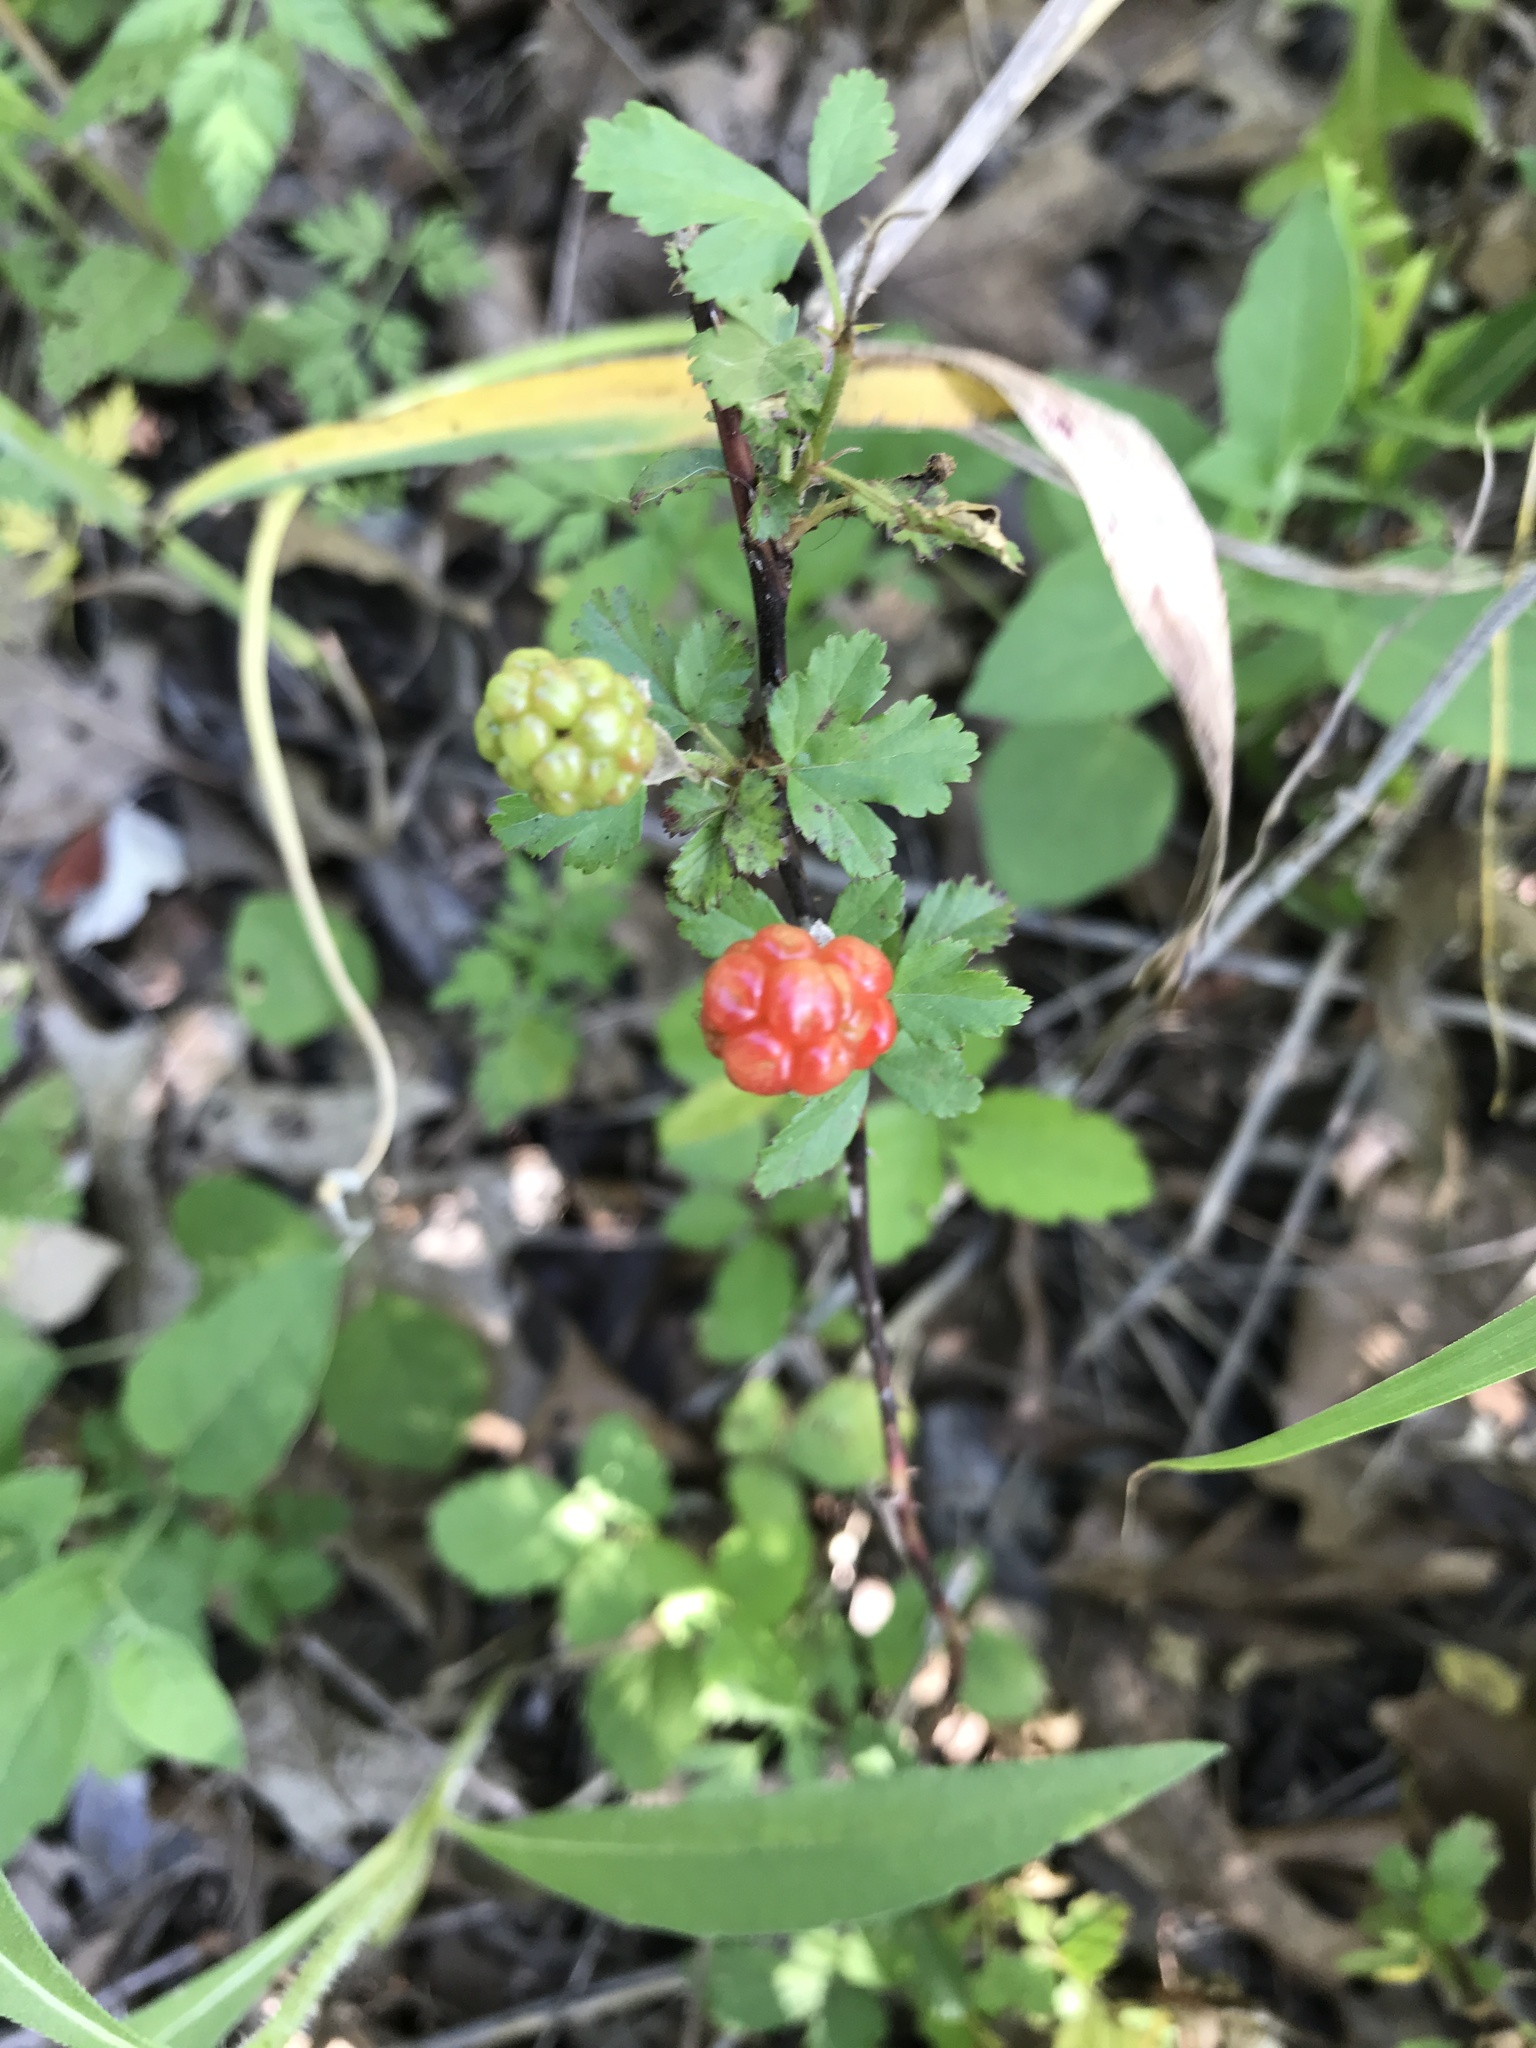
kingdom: Plantae
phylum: Tracheophyta
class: Magnoliopsida
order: Rosales
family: Rosaceae
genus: Rubus
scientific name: Rubus trivialis
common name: Southern dewberry
